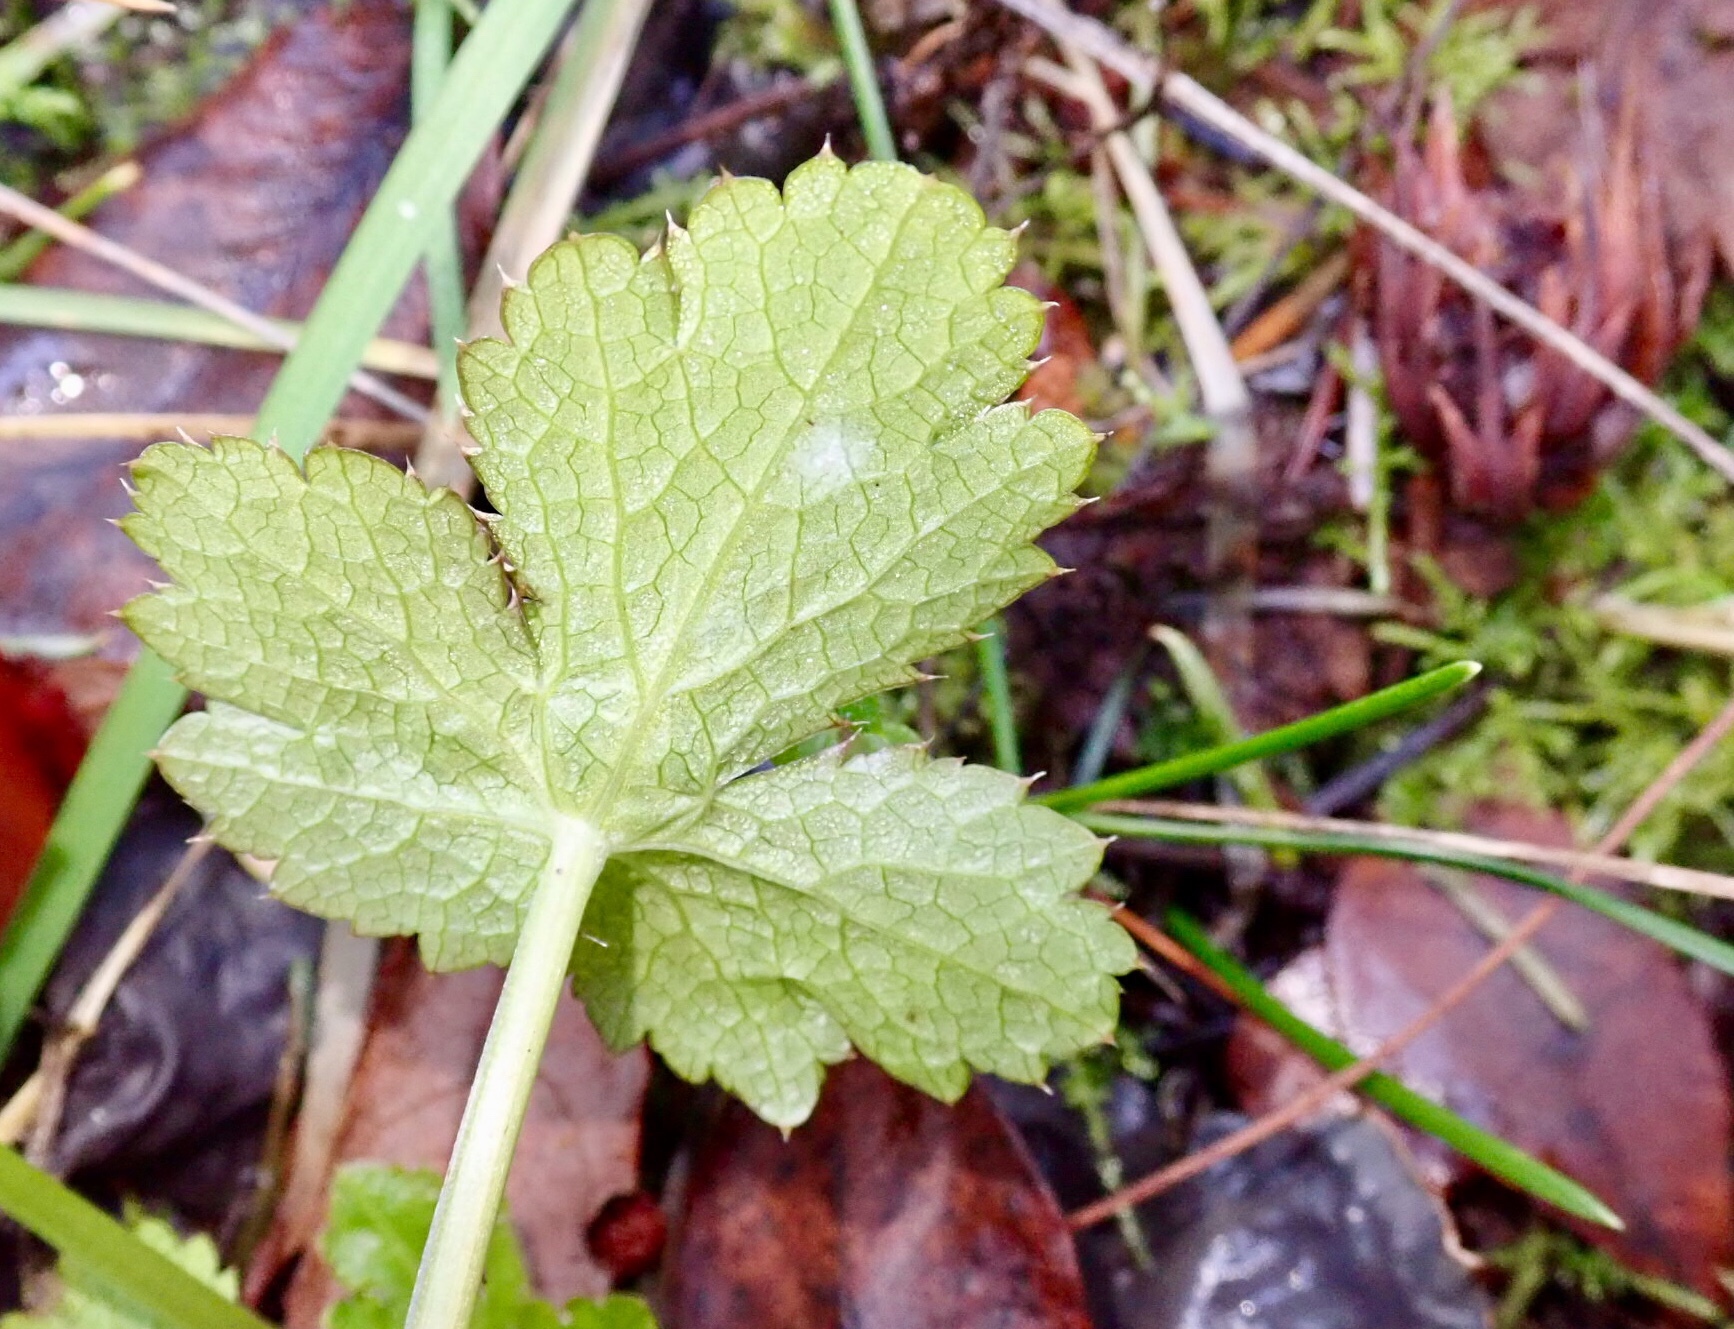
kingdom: Plantae
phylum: Tracheophyta
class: Magnoliopsida
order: Apiales
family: Apiaceae
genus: Sanicula
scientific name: Sanicula crassicaulis
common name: Western snakeroot
